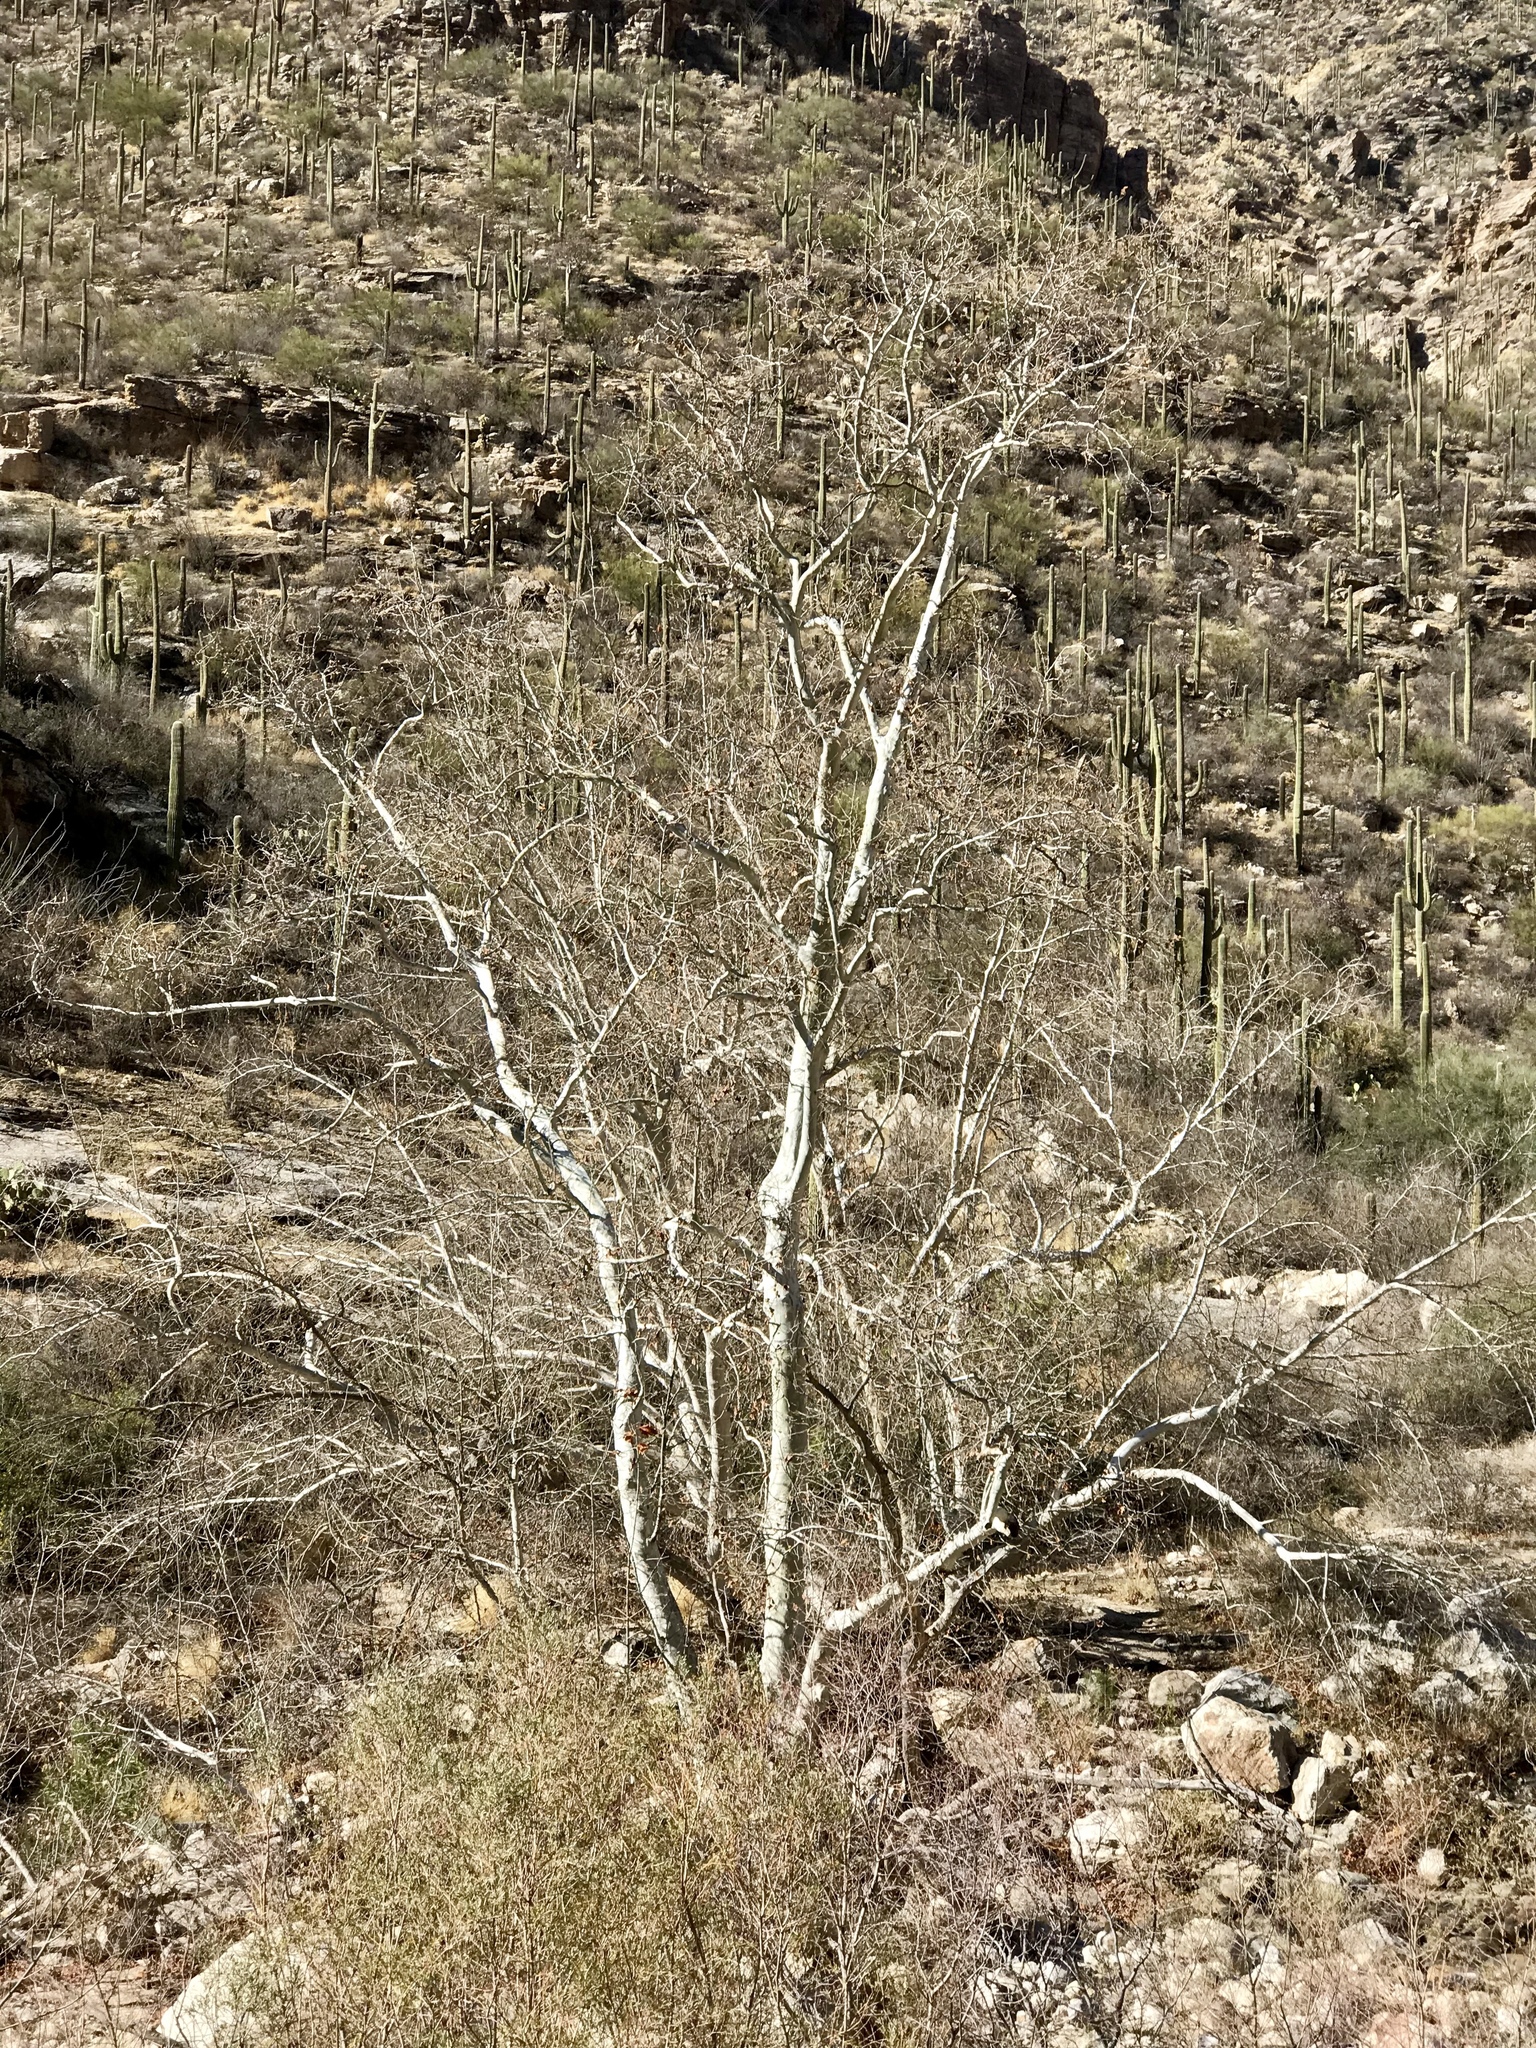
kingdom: Plantae
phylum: Tracheophyta
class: Magnoliopsida
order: Proteales
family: Platanaceae
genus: Platanus
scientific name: Platanus wrightii
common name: Arizona sycamore
